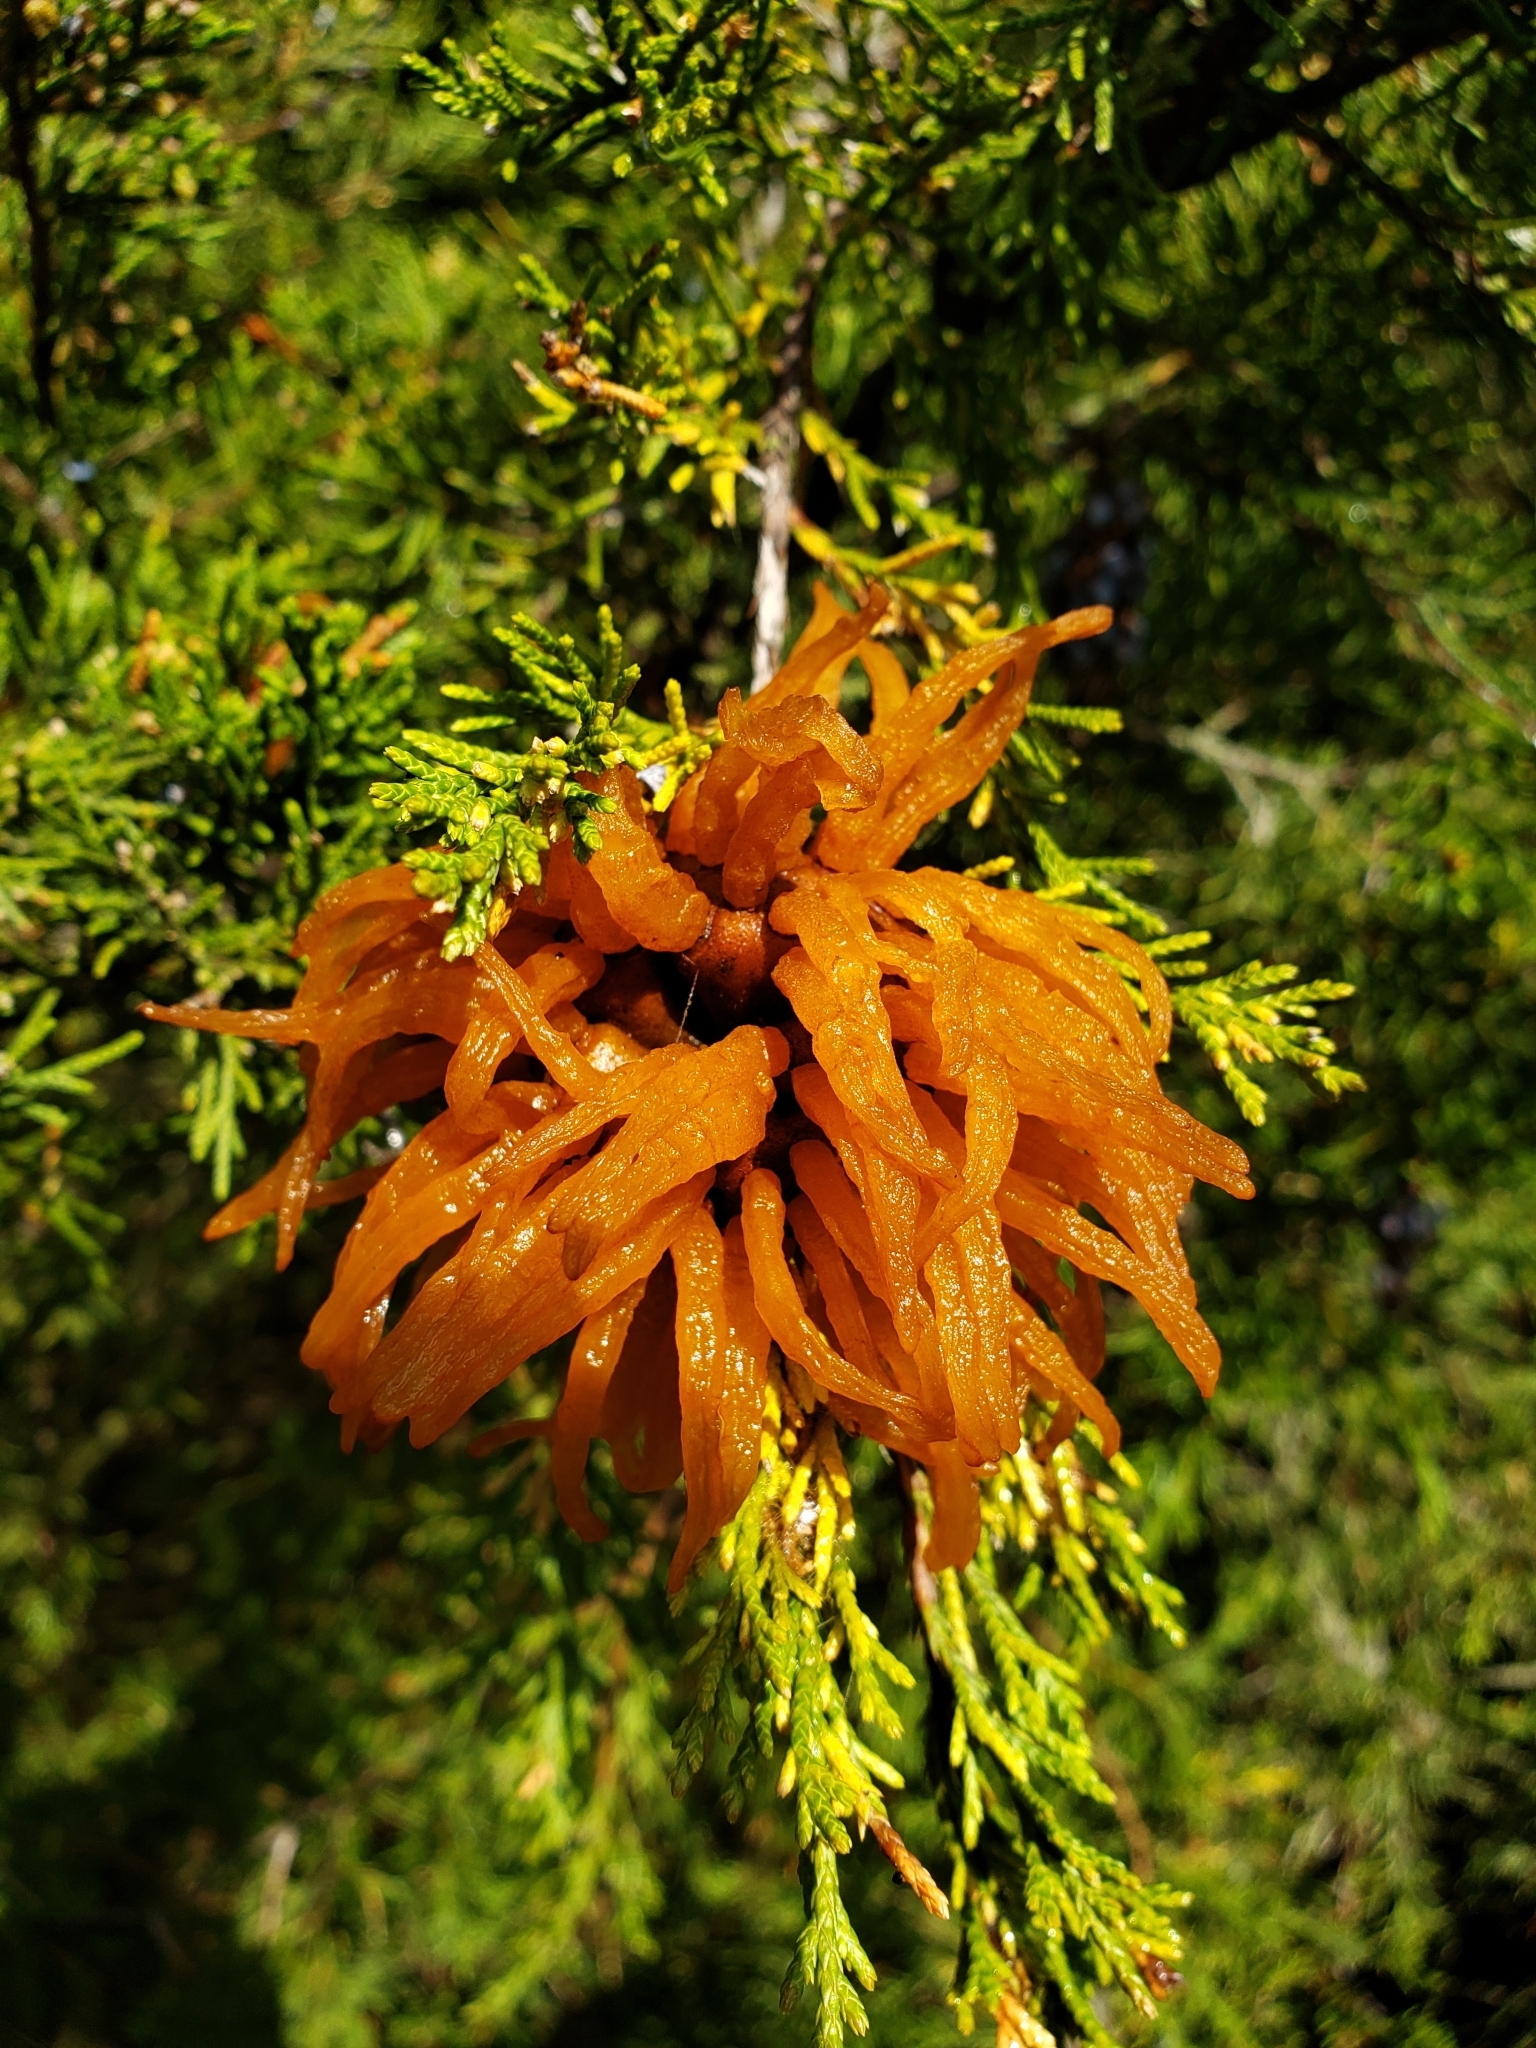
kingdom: Fungi
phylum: Basidiomycota
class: Pucciniomycetes
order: Pucciniales
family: Gymnosporangiaceae
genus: Gymnosporangium
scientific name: Gymnosporangium juniperi-virginianae
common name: Juniper-apple rust
